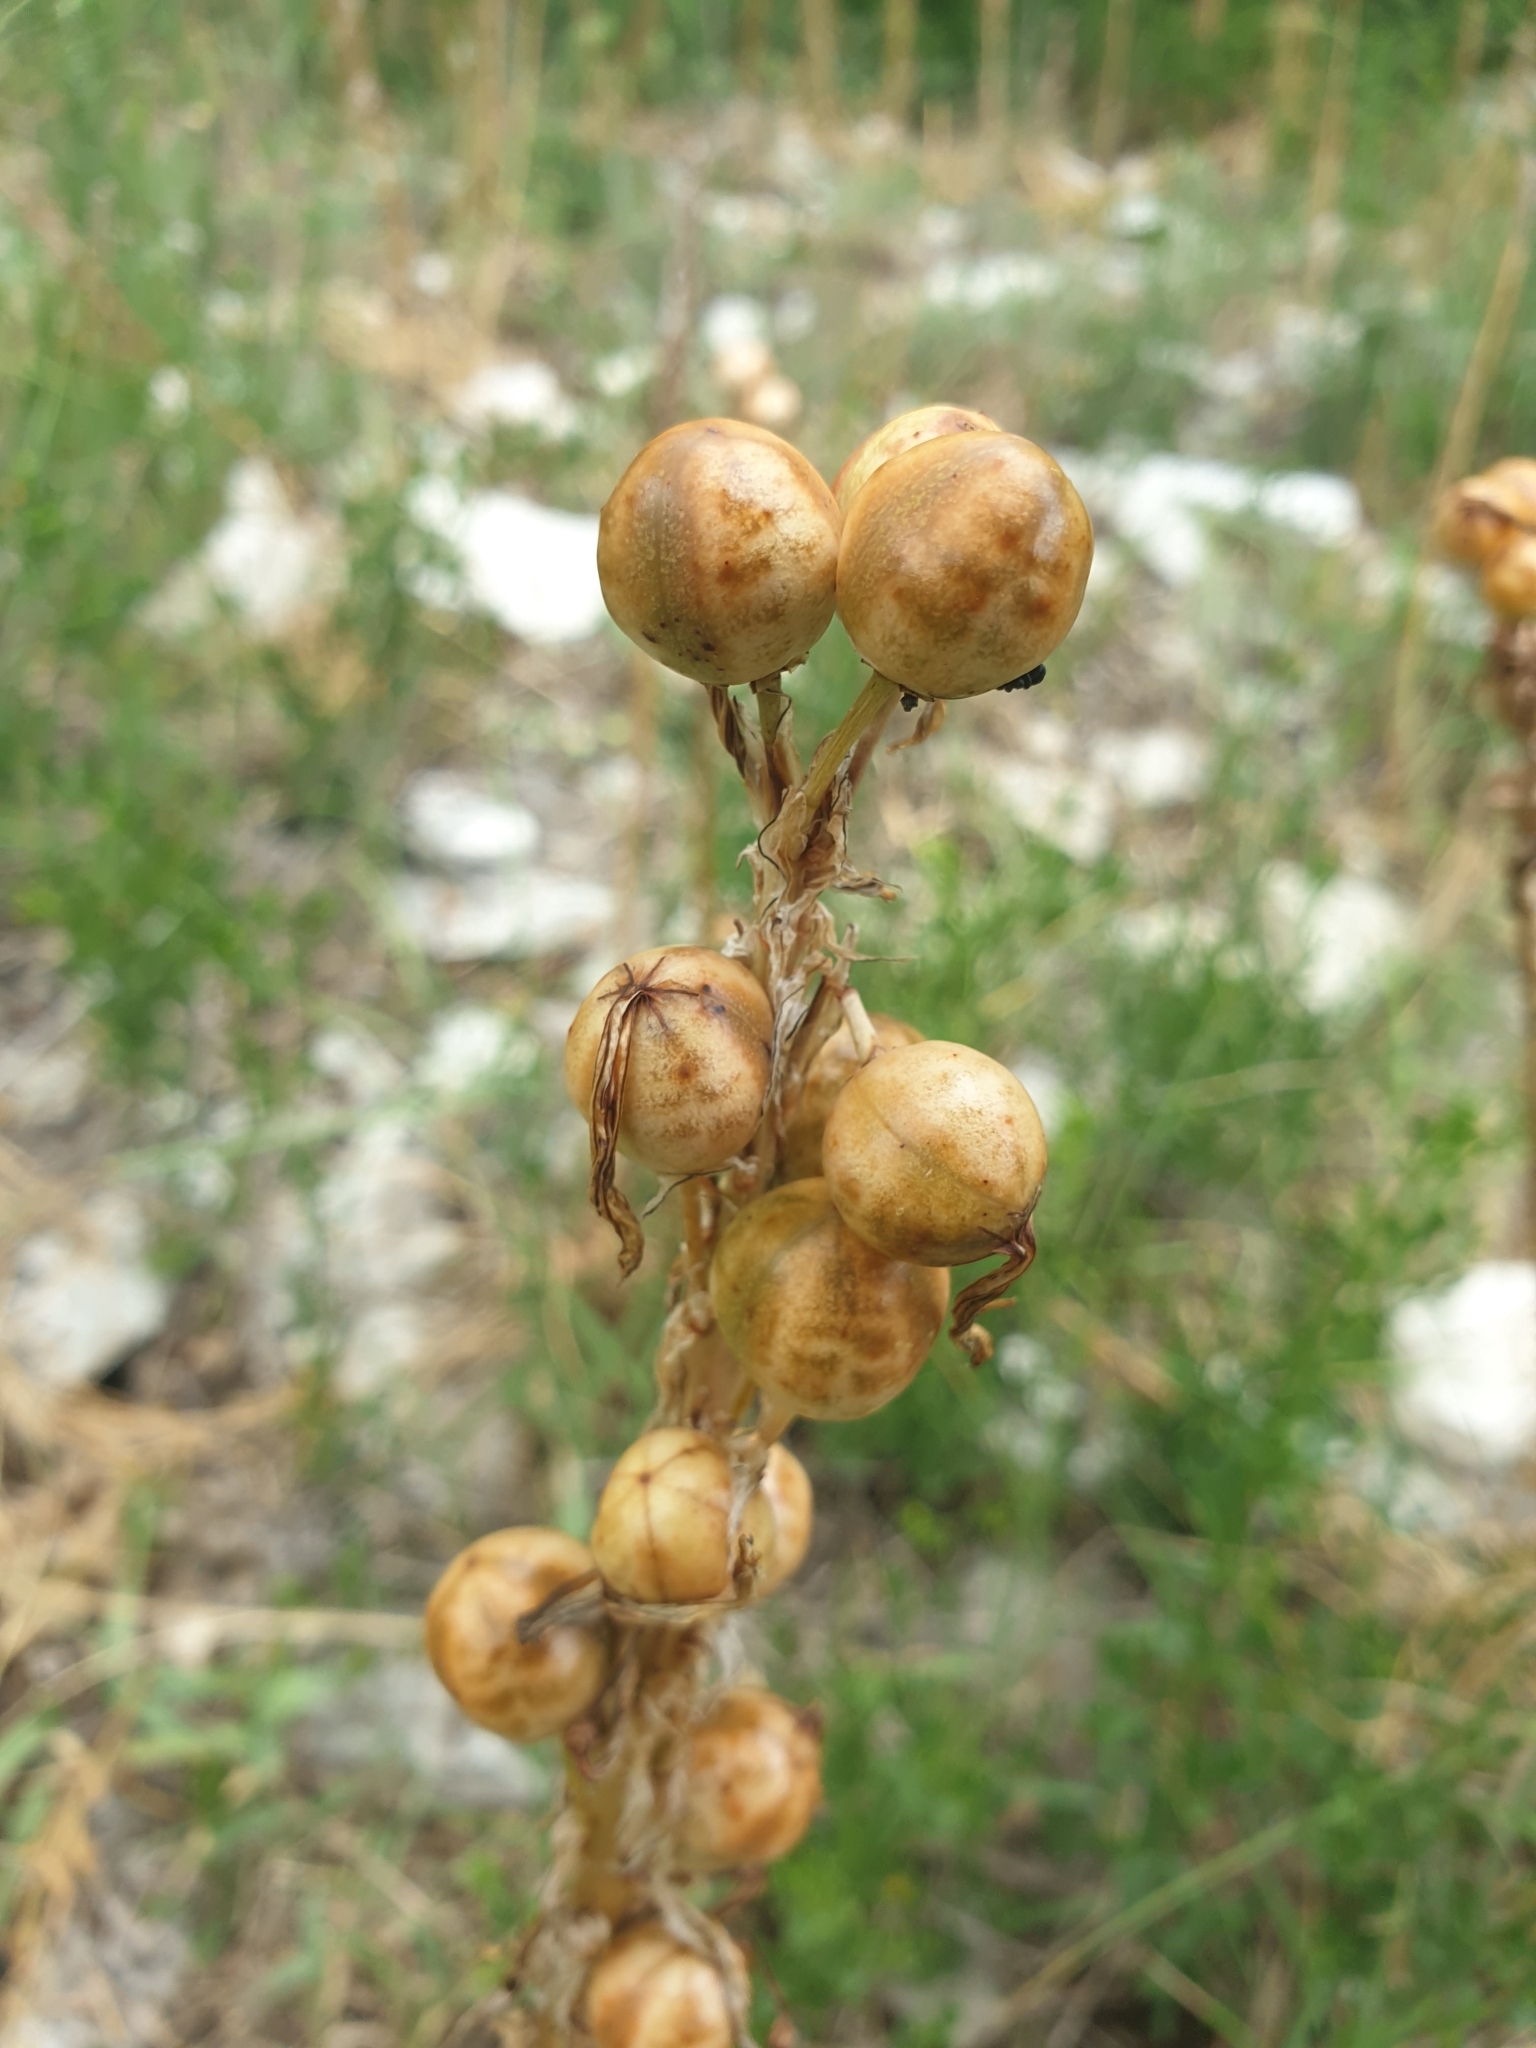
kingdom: Plantae
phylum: Tracheophyta
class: Liliopsida
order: Asparagales
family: Asphodelaceae
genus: Asphodeline
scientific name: Asphodeline taurica
